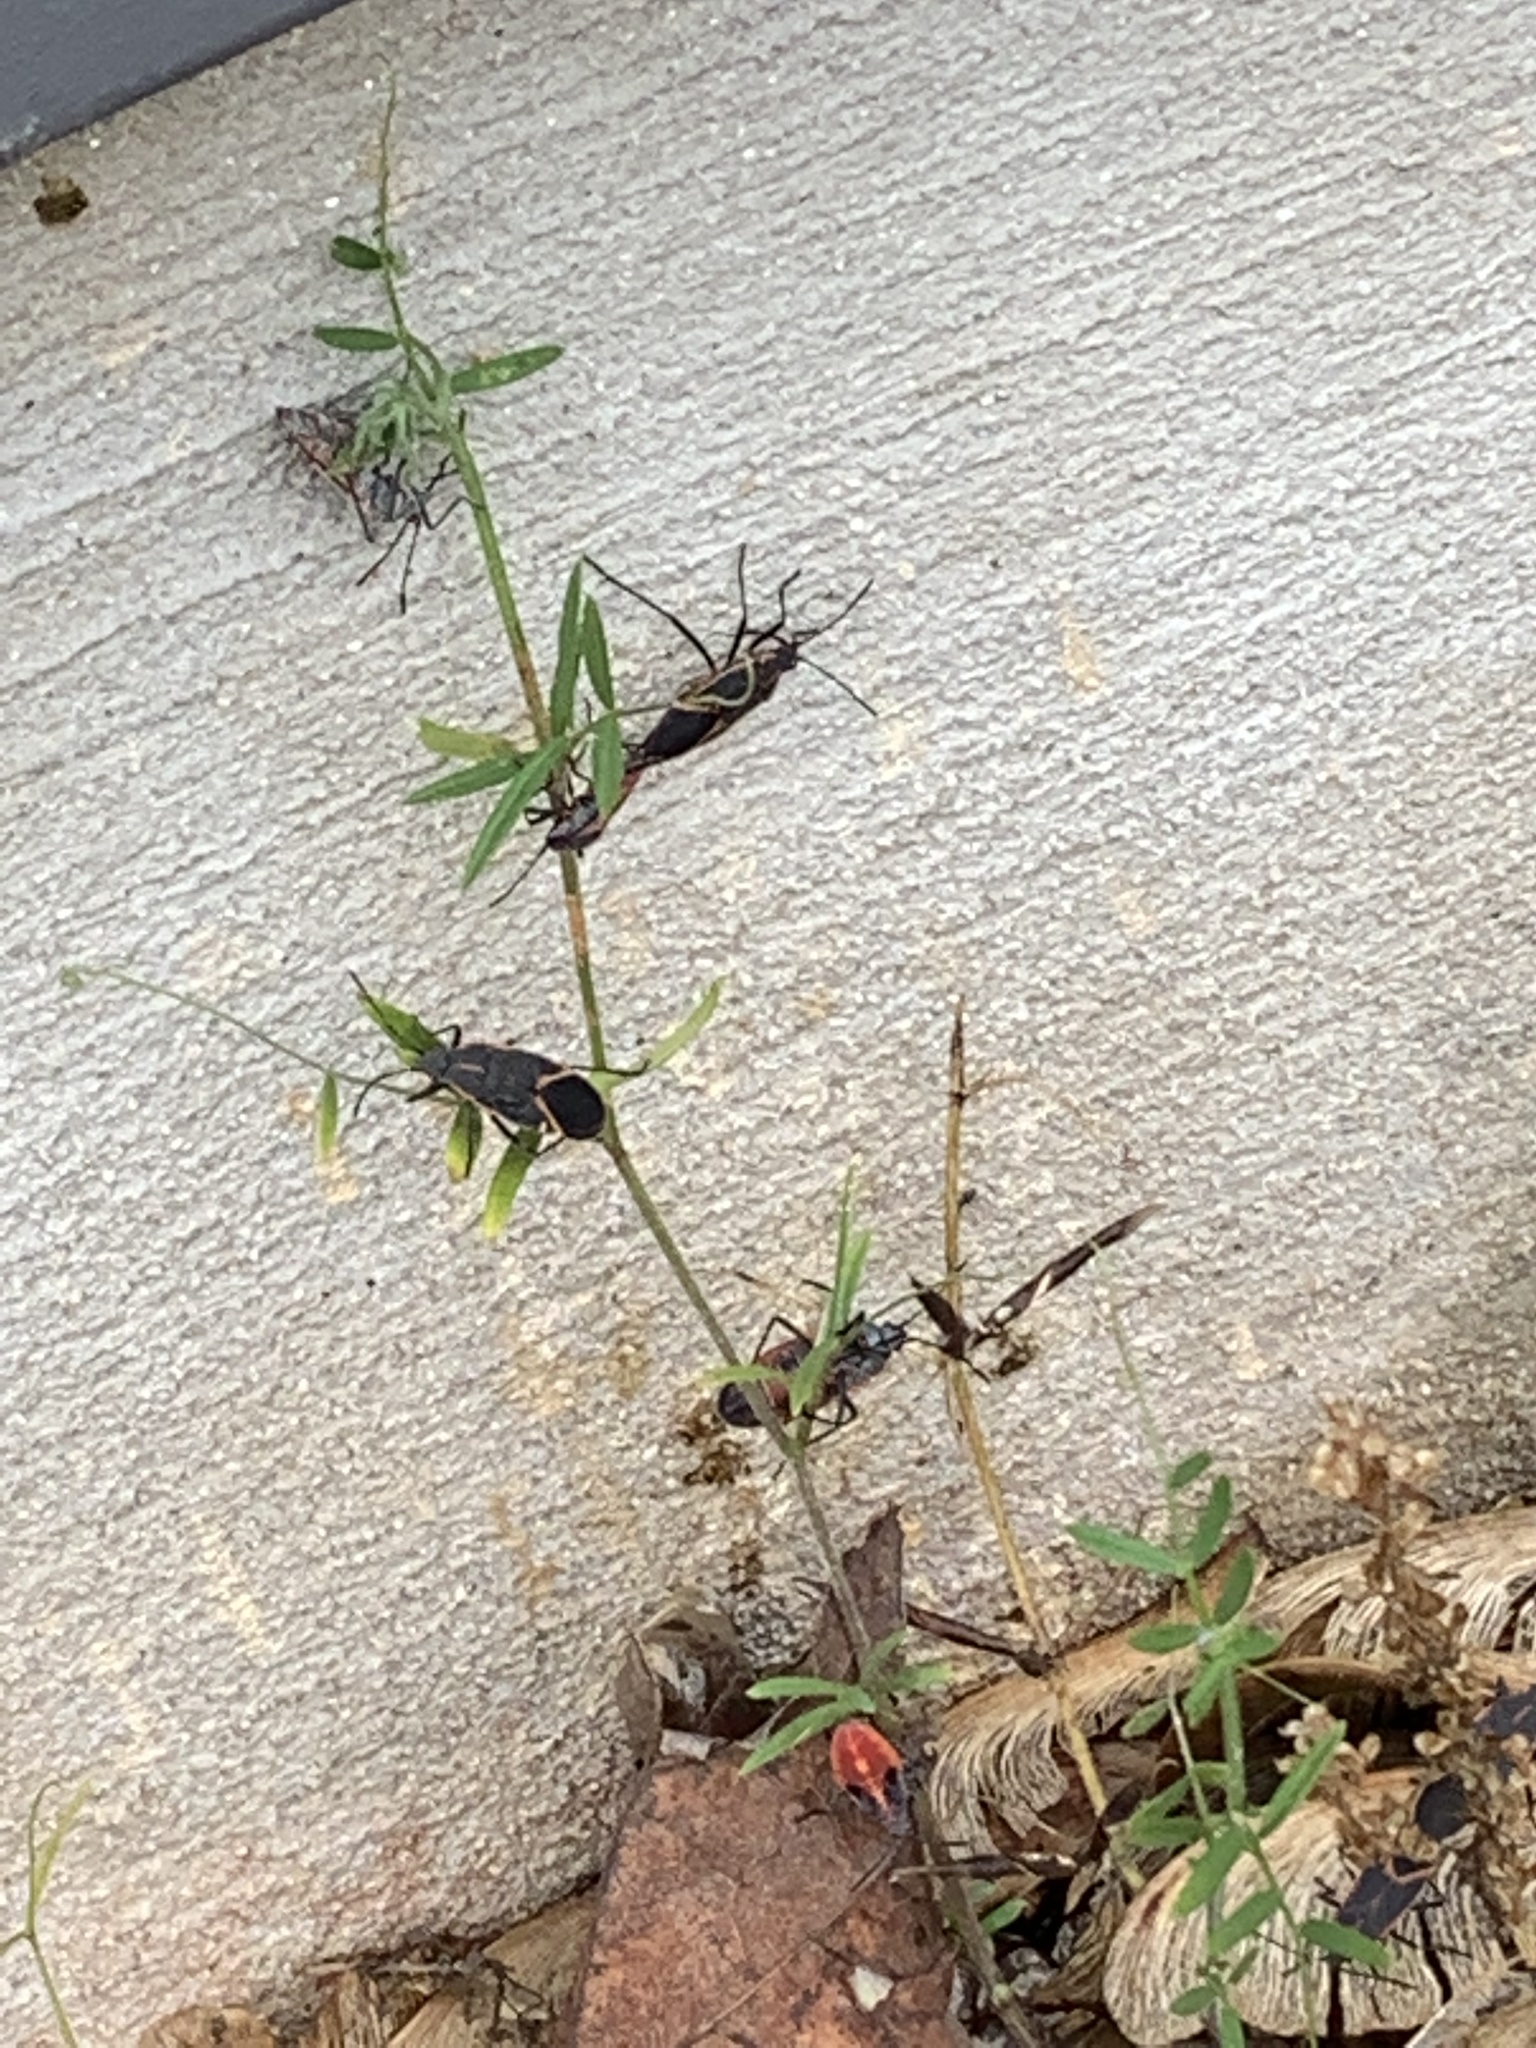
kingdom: Animalia
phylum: Arthropoda
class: Insecta
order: Hemiptera
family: Rhopalidae
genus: Boisea
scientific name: Boisea trivittata
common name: Boxelder bug
